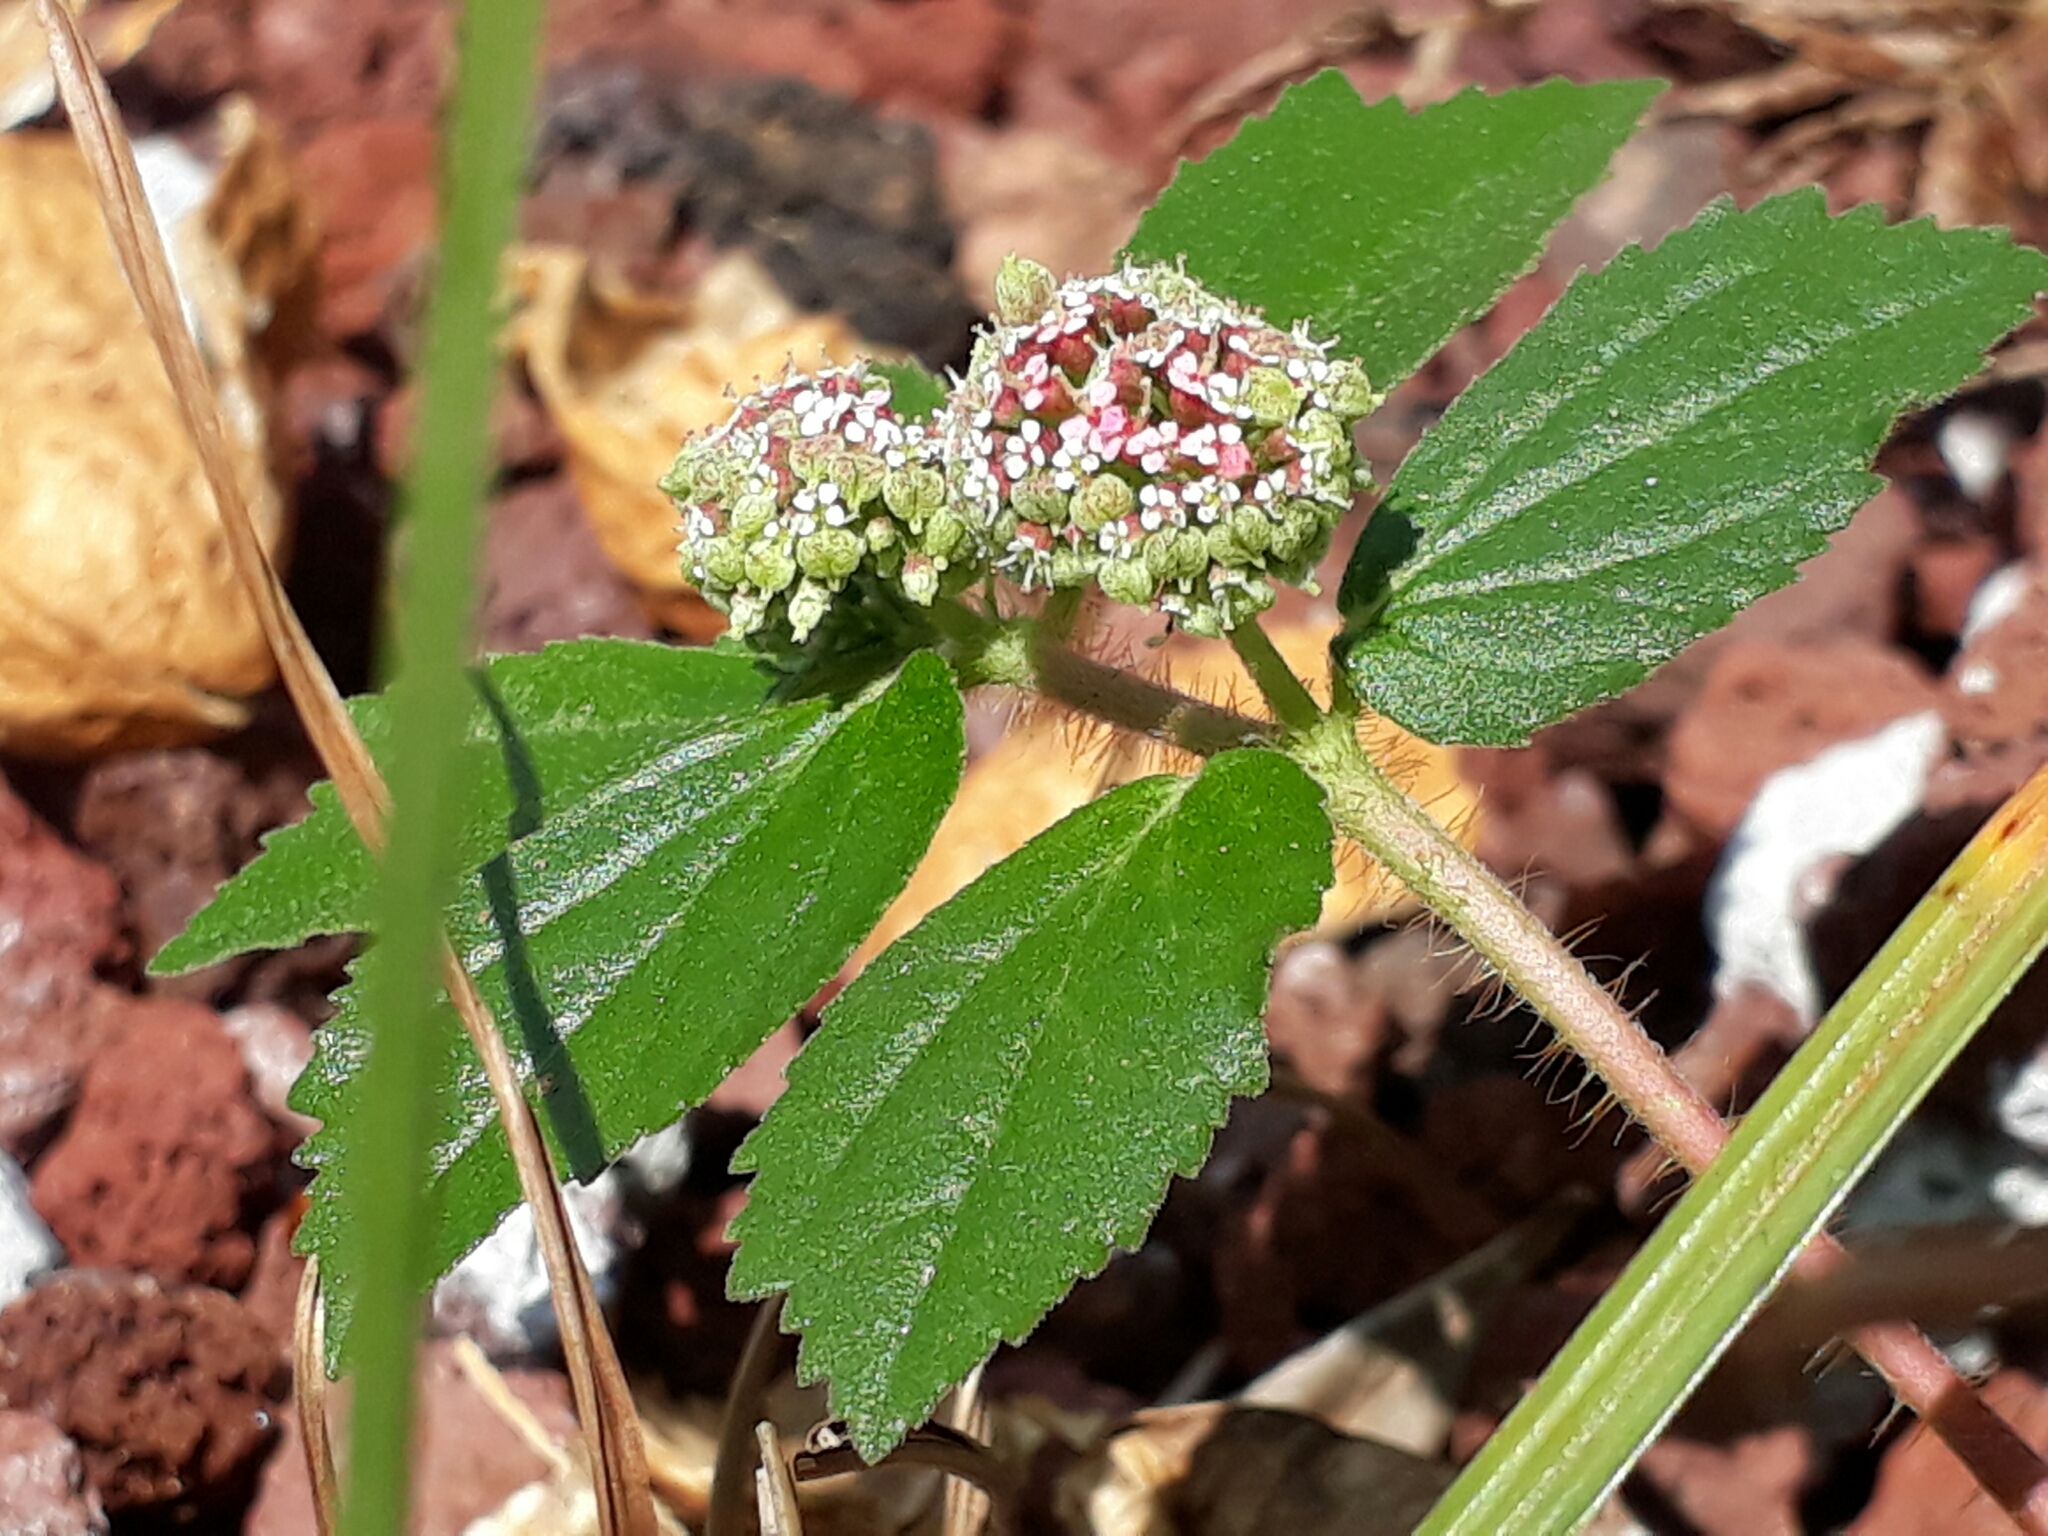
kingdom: Plantae
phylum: Tracheophyta
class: Magnoliopsida
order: Malpighiales
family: Euphorbiaceae
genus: Euphorbia
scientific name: Euphorbia hirta
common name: Pillpod sandmat
